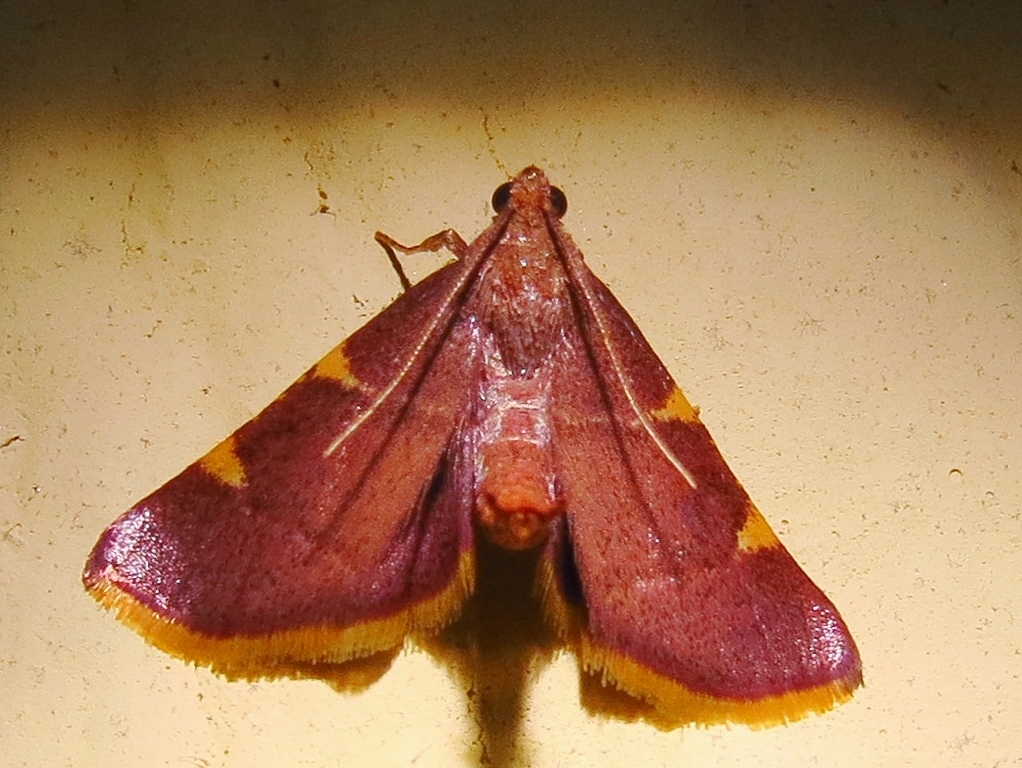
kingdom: Animalia
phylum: Arthropoda
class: Insecta
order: Lepidoptera
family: Pyralidae
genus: Hypsopygia
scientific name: Hypsopygia olinalis
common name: Yellow-fringed dolichomia moth
